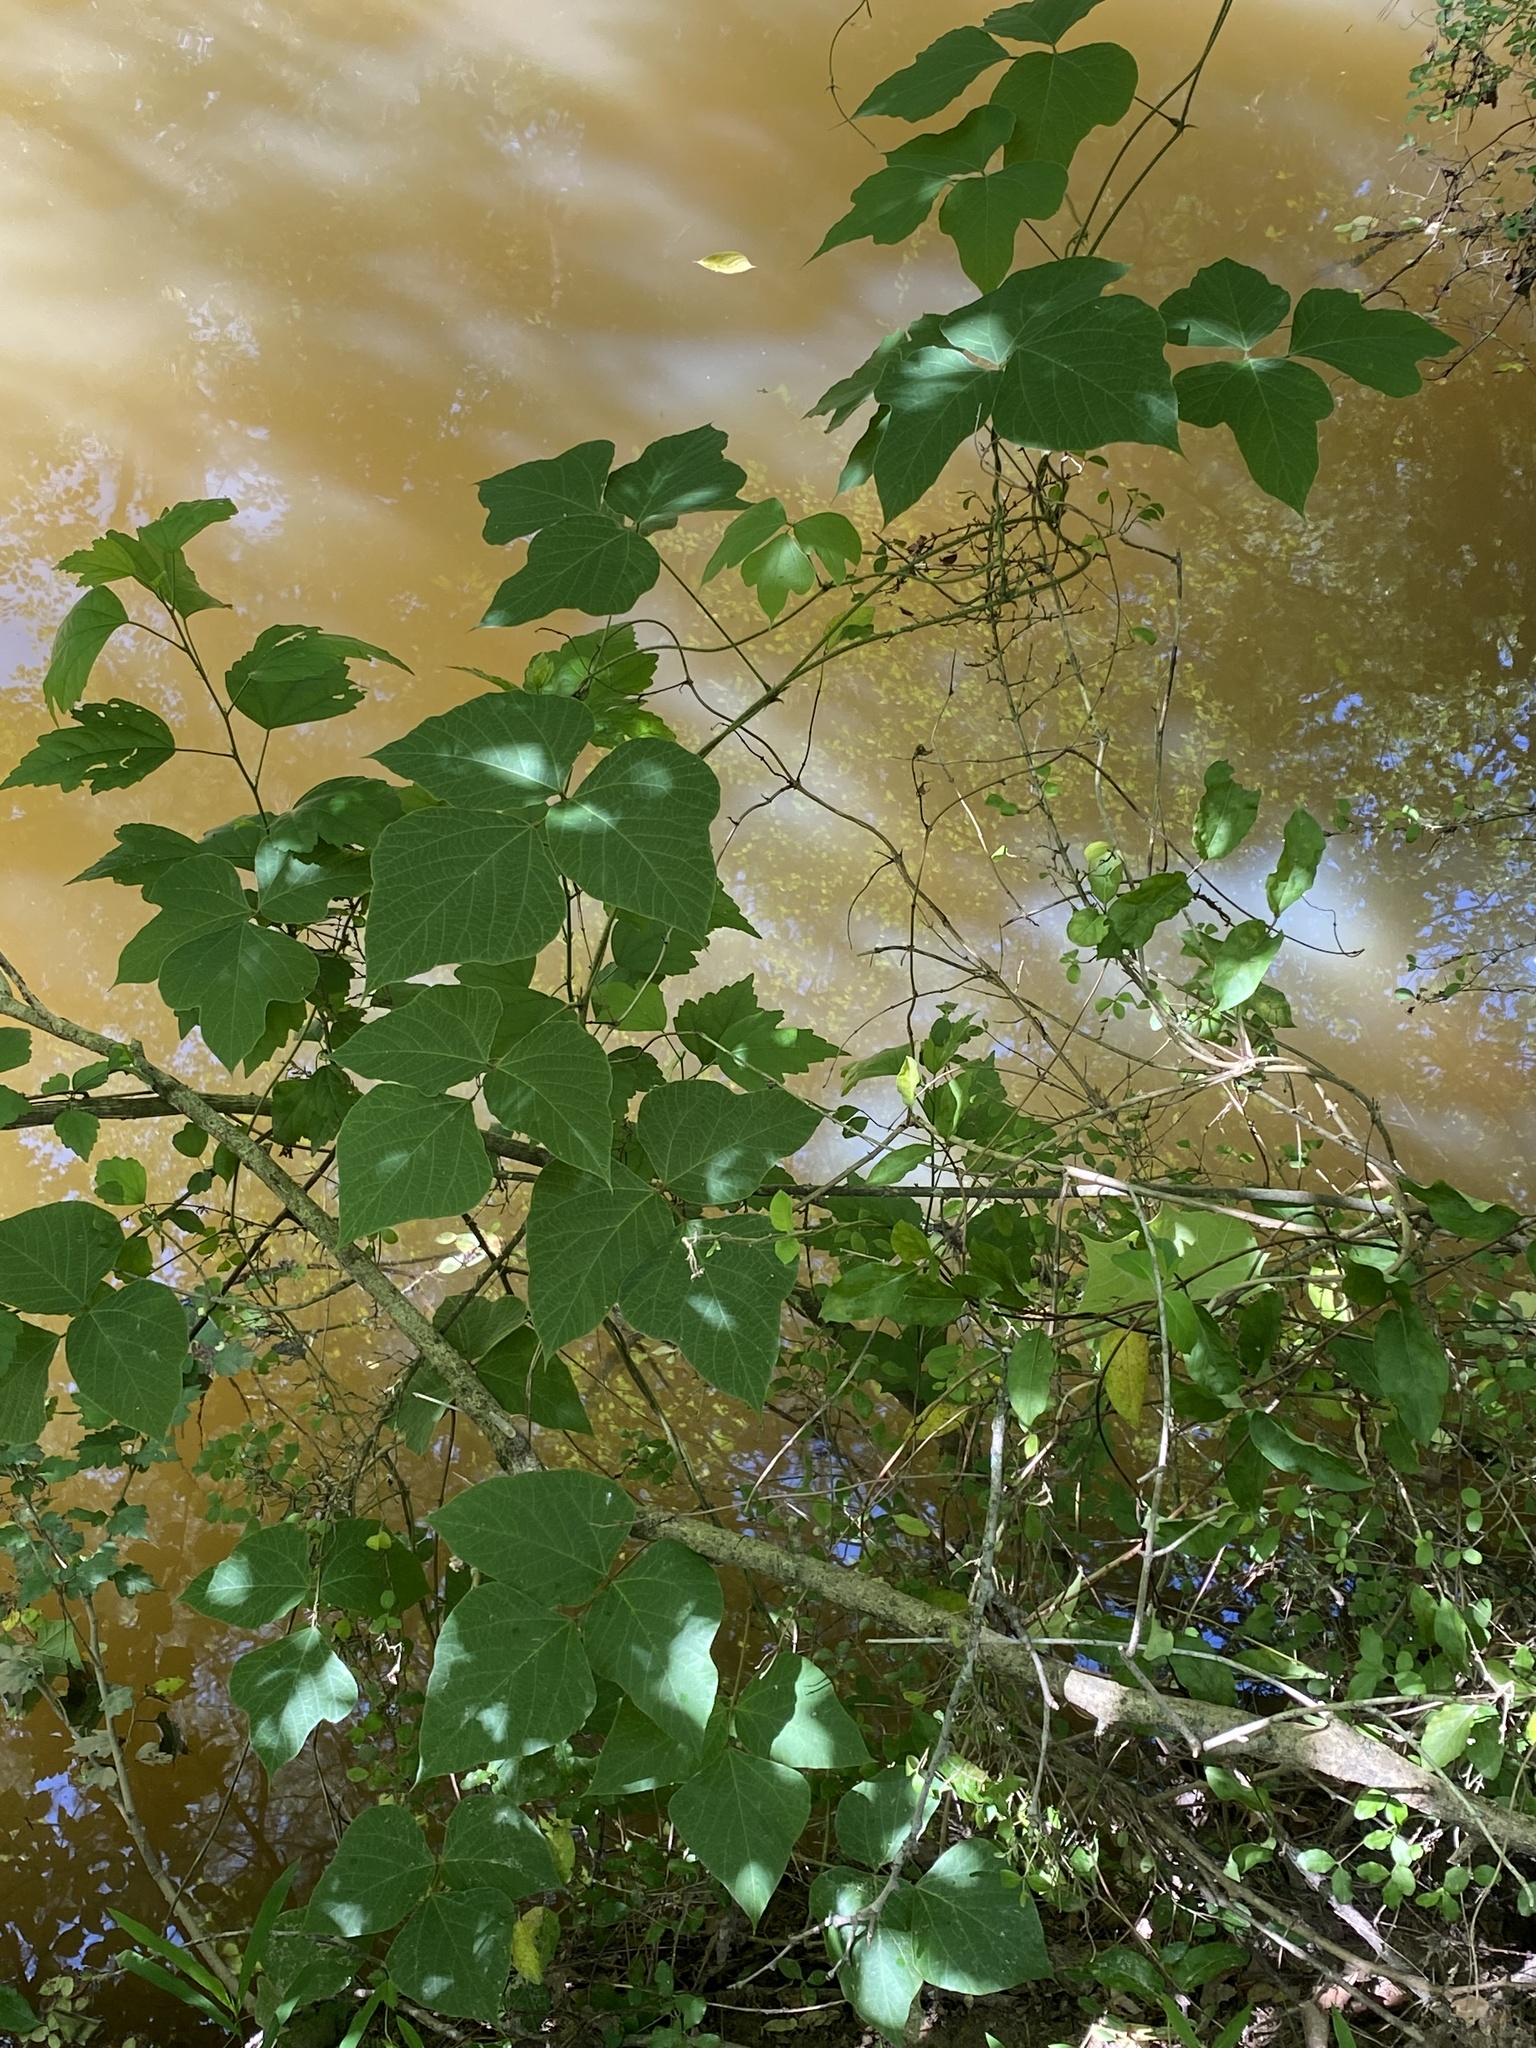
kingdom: Plantae
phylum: Tracheophyta
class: Magnoliopsida
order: Fabales
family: Fabaceae
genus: Pueraria
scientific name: Pueraria montana
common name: Kudzu
